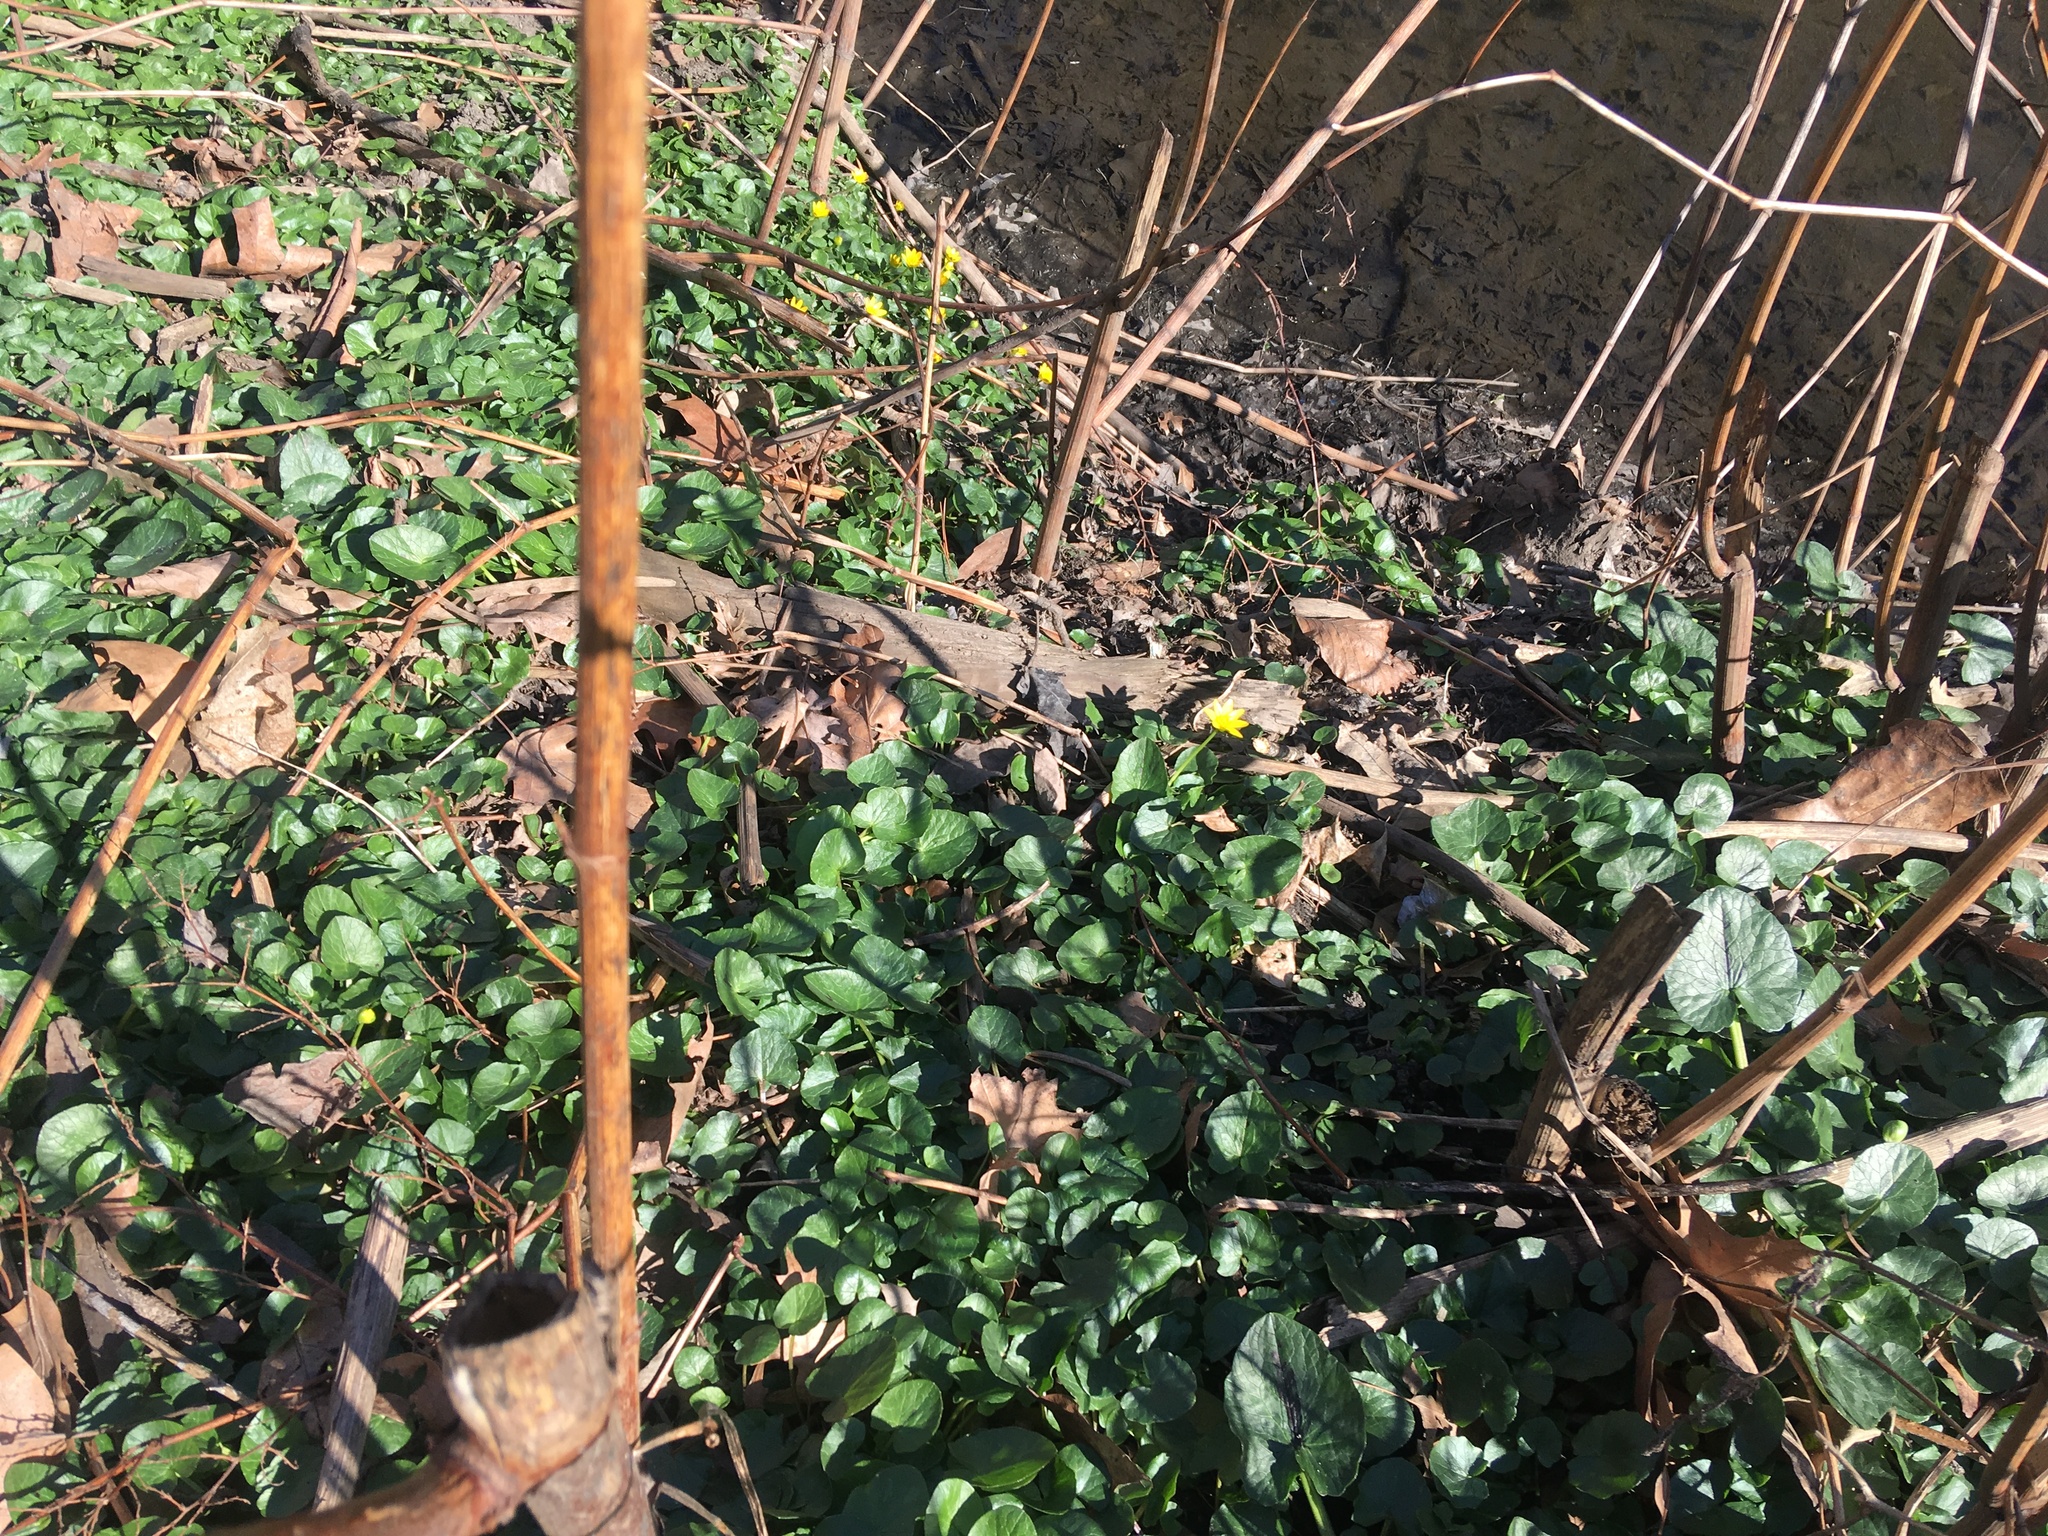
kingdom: Plantae
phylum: Tracheophyta
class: Magnoliopsida
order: Ranunculales
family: Ranunculaceae
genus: Ficaria
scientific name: Ficaria verna
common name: Lesser celandine
